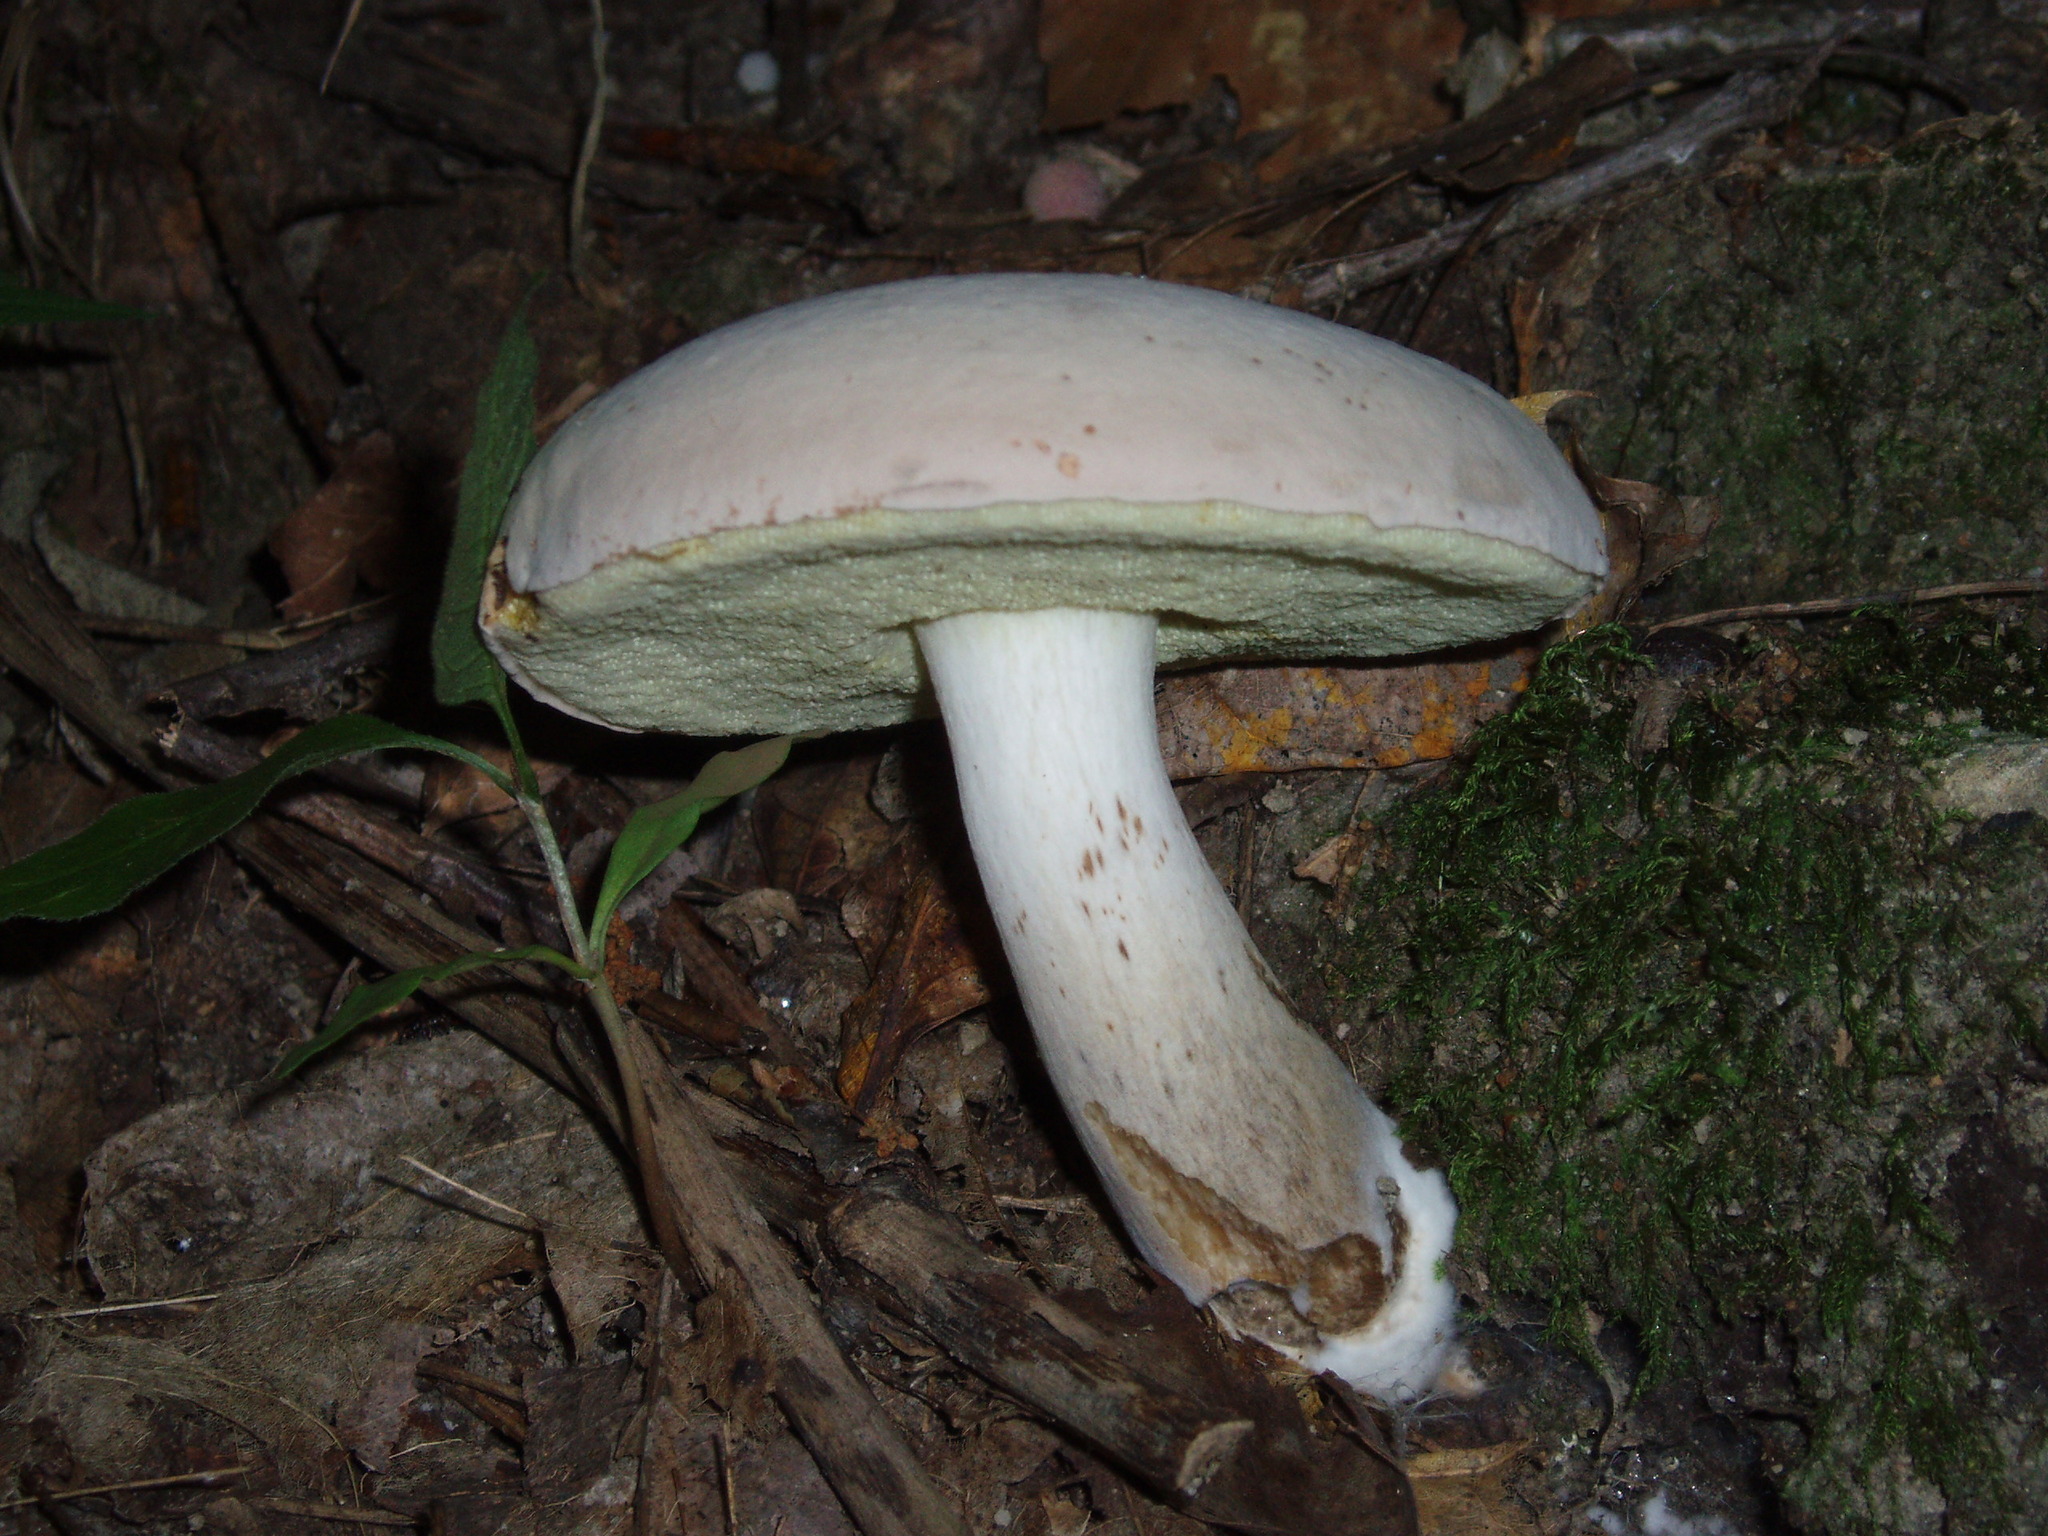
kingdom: Fungi
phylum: Basidiomycota
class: Agaricomycetes
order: Boletales
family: Boletaceae
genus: Imleria
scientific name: Imleria pallida
